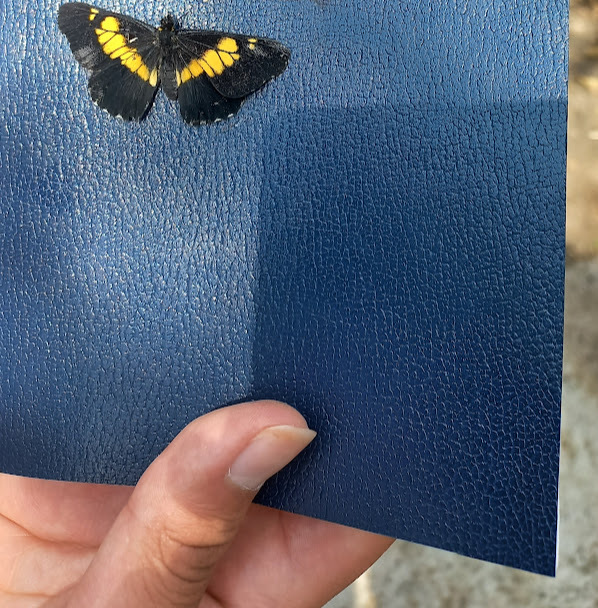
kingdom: Animalia
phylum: Arthropoda
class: Insecta
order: Lepidoptera
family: Pieridae
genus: Archonias
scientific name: Archonias teutila
